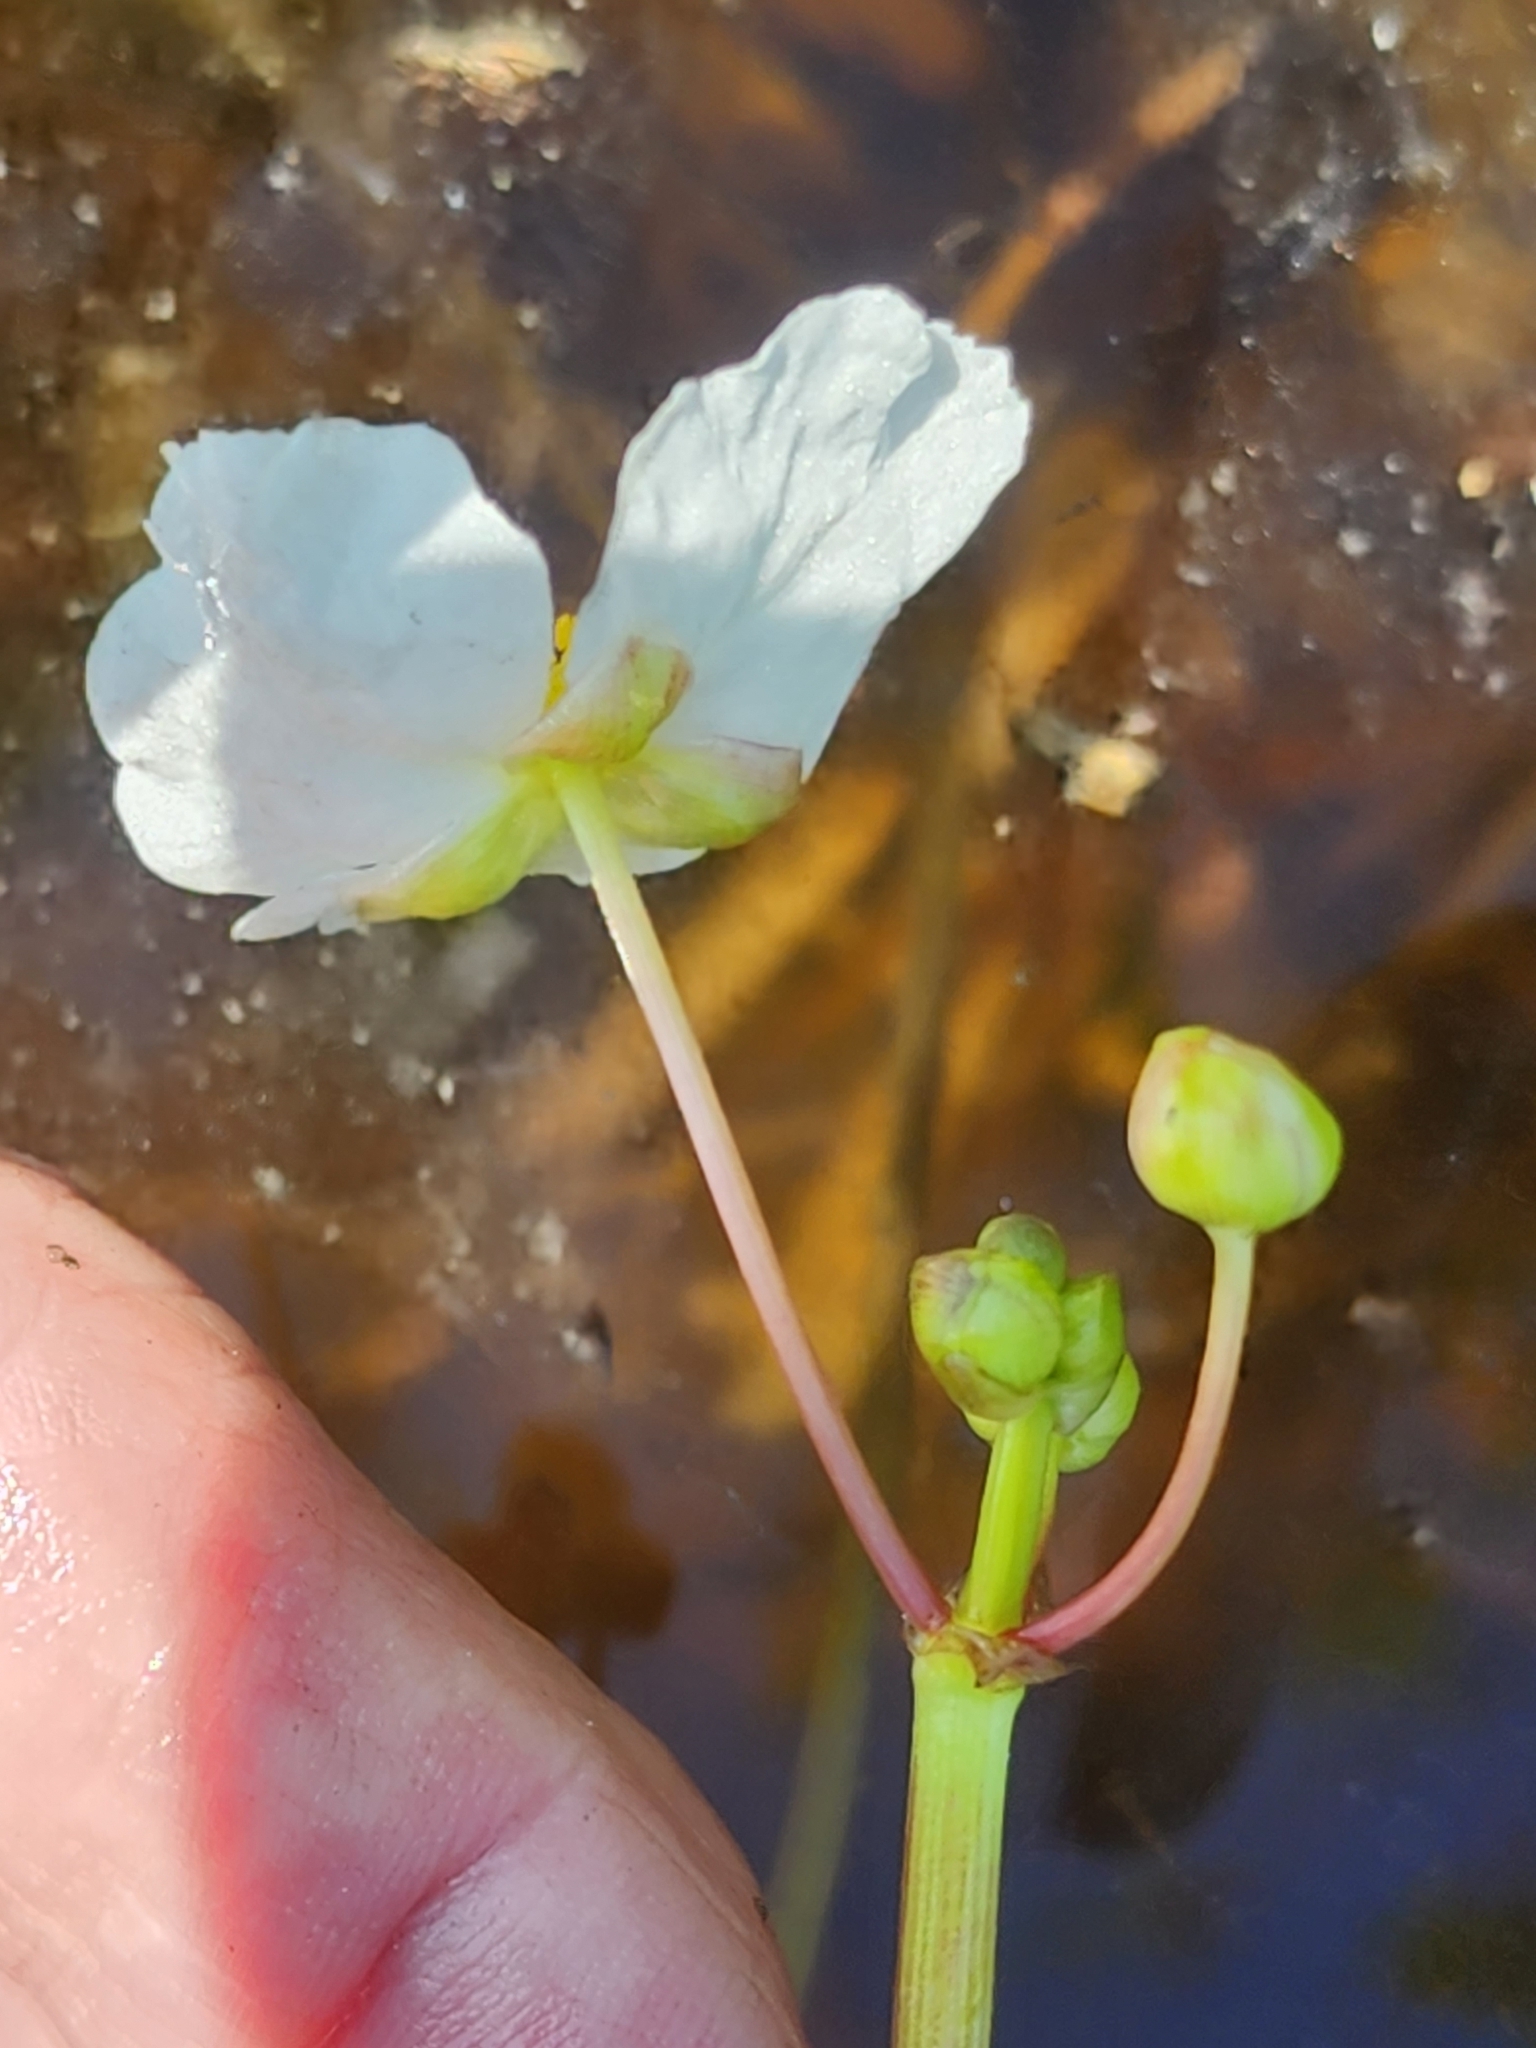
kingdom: Plantae
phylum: Tracheophyta
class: Liliopsida
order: Alismatales
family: Alismataceae
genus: Sagittaria
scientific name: Sagittaria rigida
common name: Canadian arrowhead
